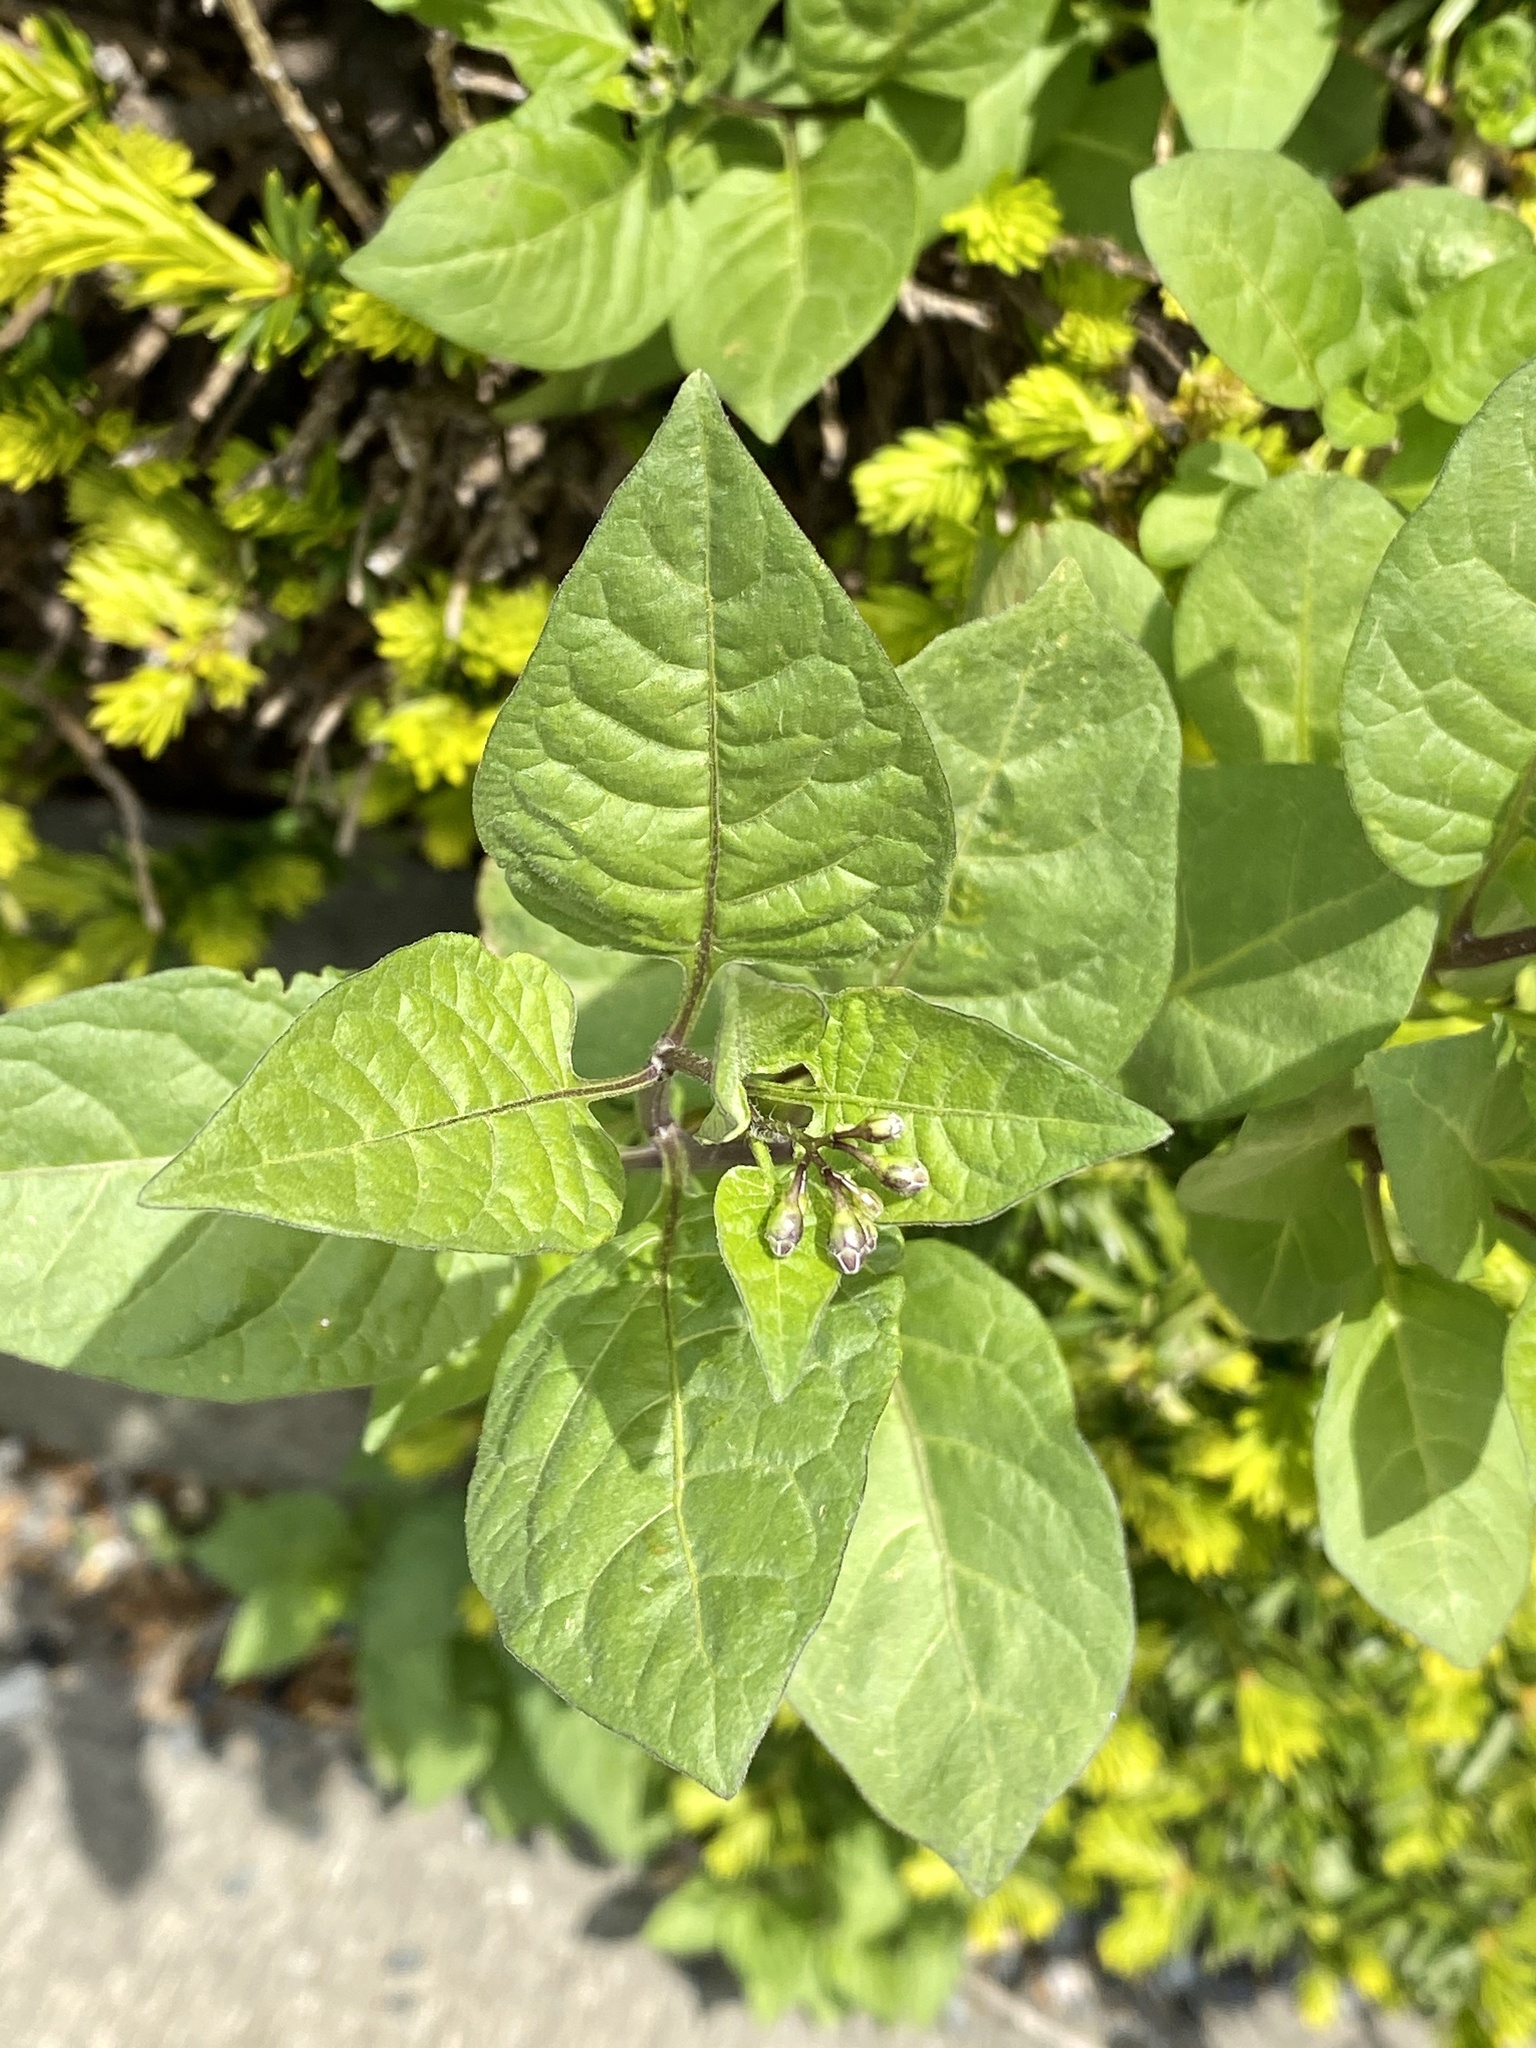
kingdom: Plantae
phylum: Tracheophyta
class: Magnoliopsida
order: Solanales
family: Solanaceae
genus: Solanum
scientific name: Solanum dulcamara
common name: Climbing nightshade
